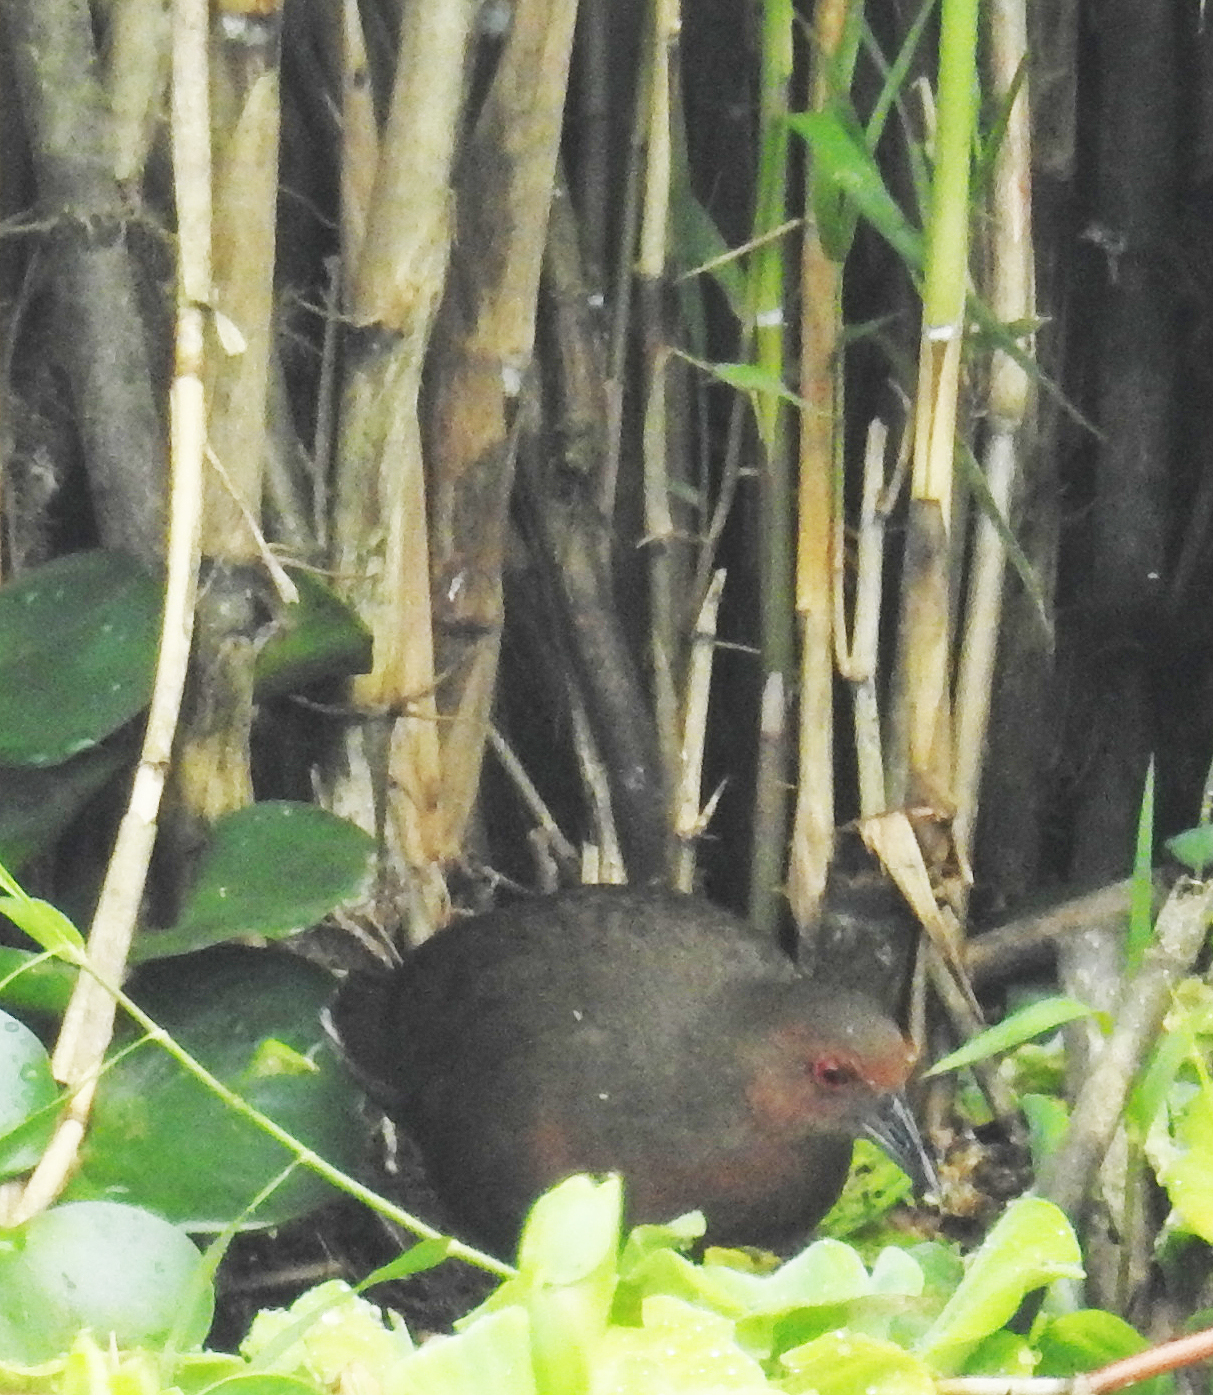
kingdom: Animalia
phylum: Chordata
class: Aves
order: Gruiformes
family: Rallidae
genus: Porzana
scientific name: Porzana fusca
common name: Ruddy-breasted crake
